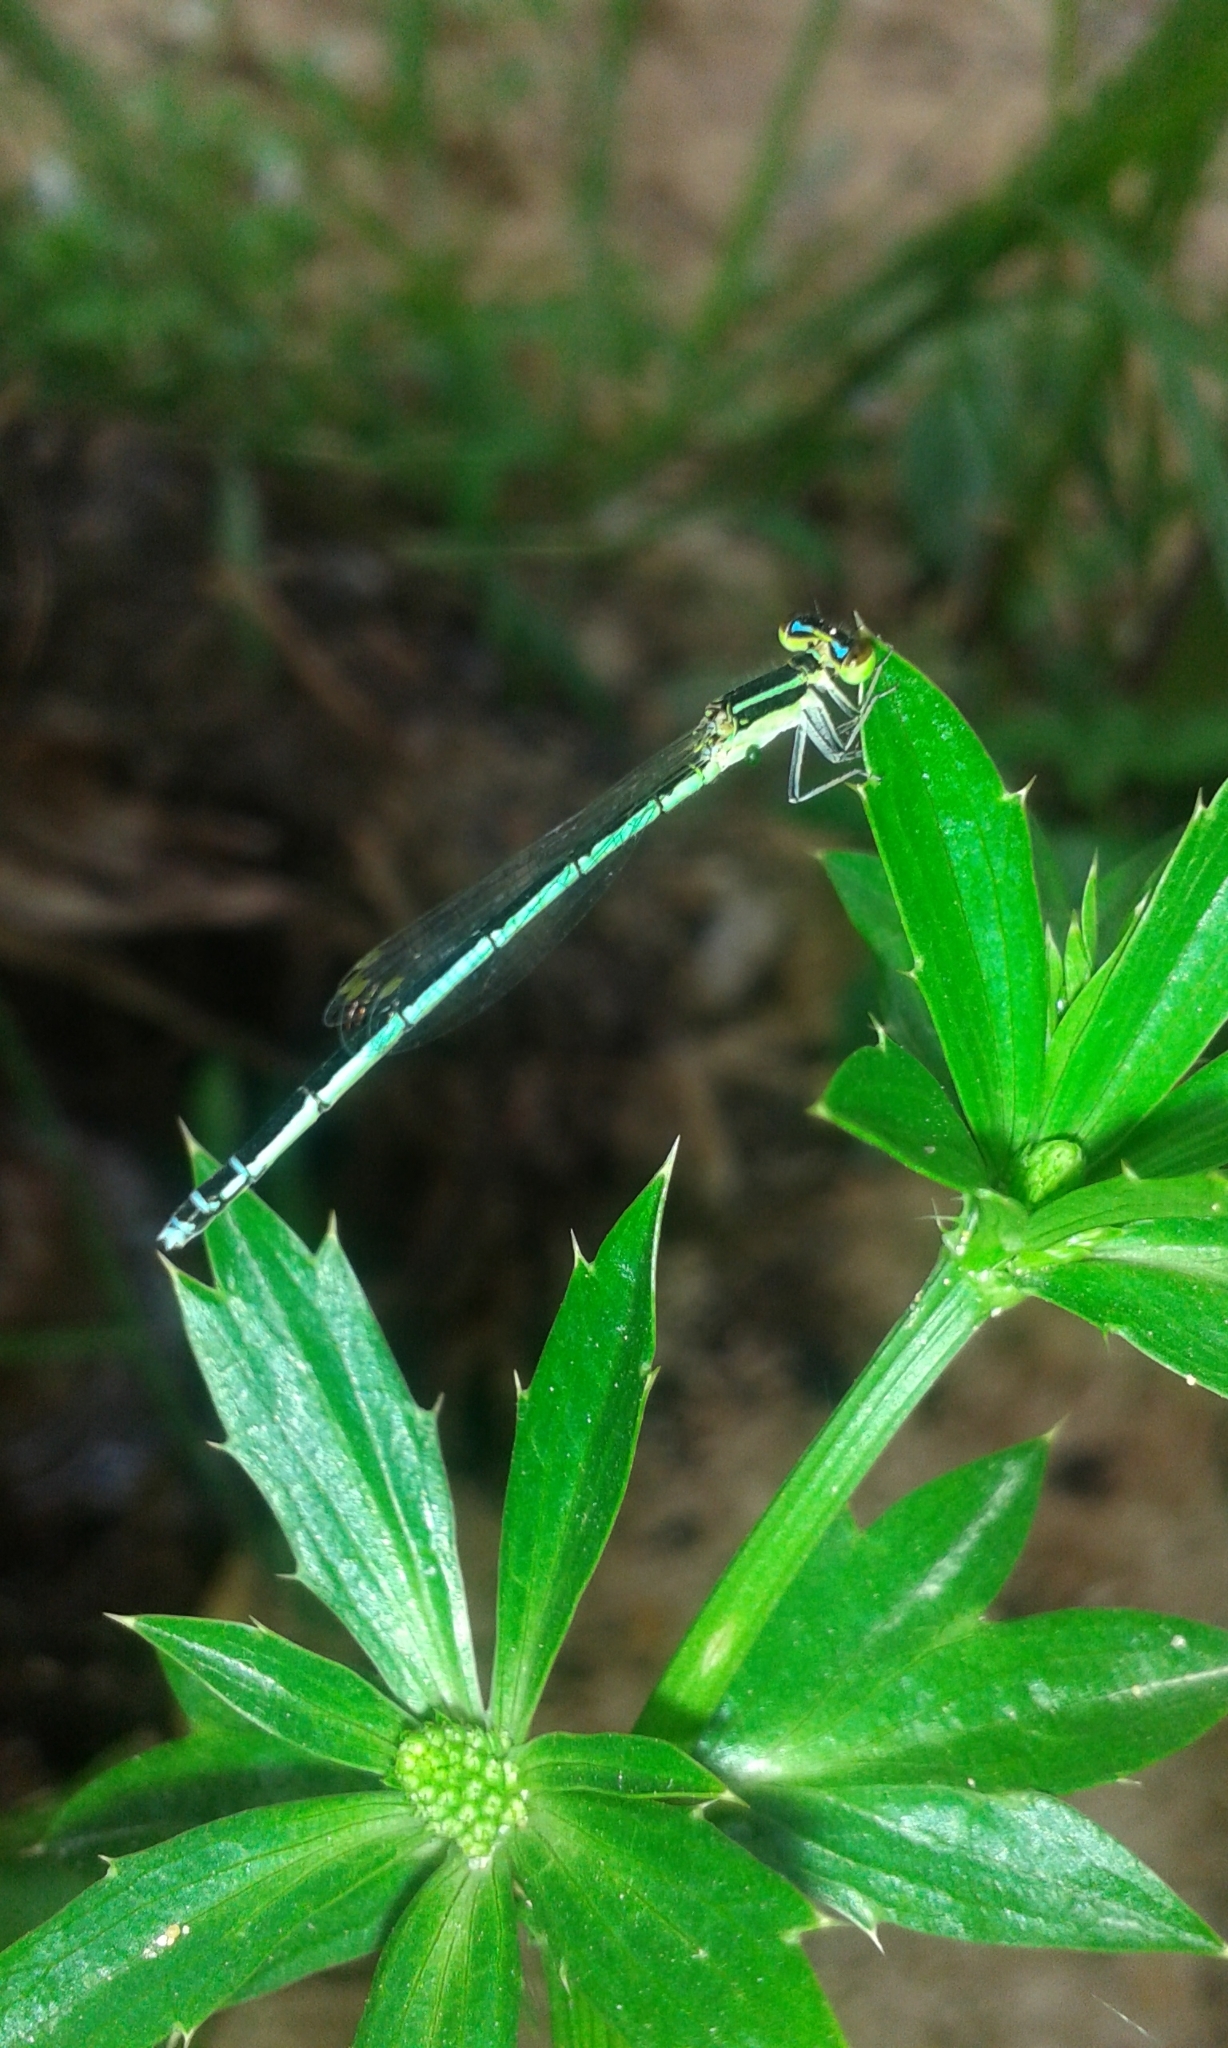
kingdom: Animalia
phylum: Arthropoda
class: Insecta
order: Odonata
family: Coenagrionidae
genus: Agriocnemis
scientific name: Agriocnemis lacteola
